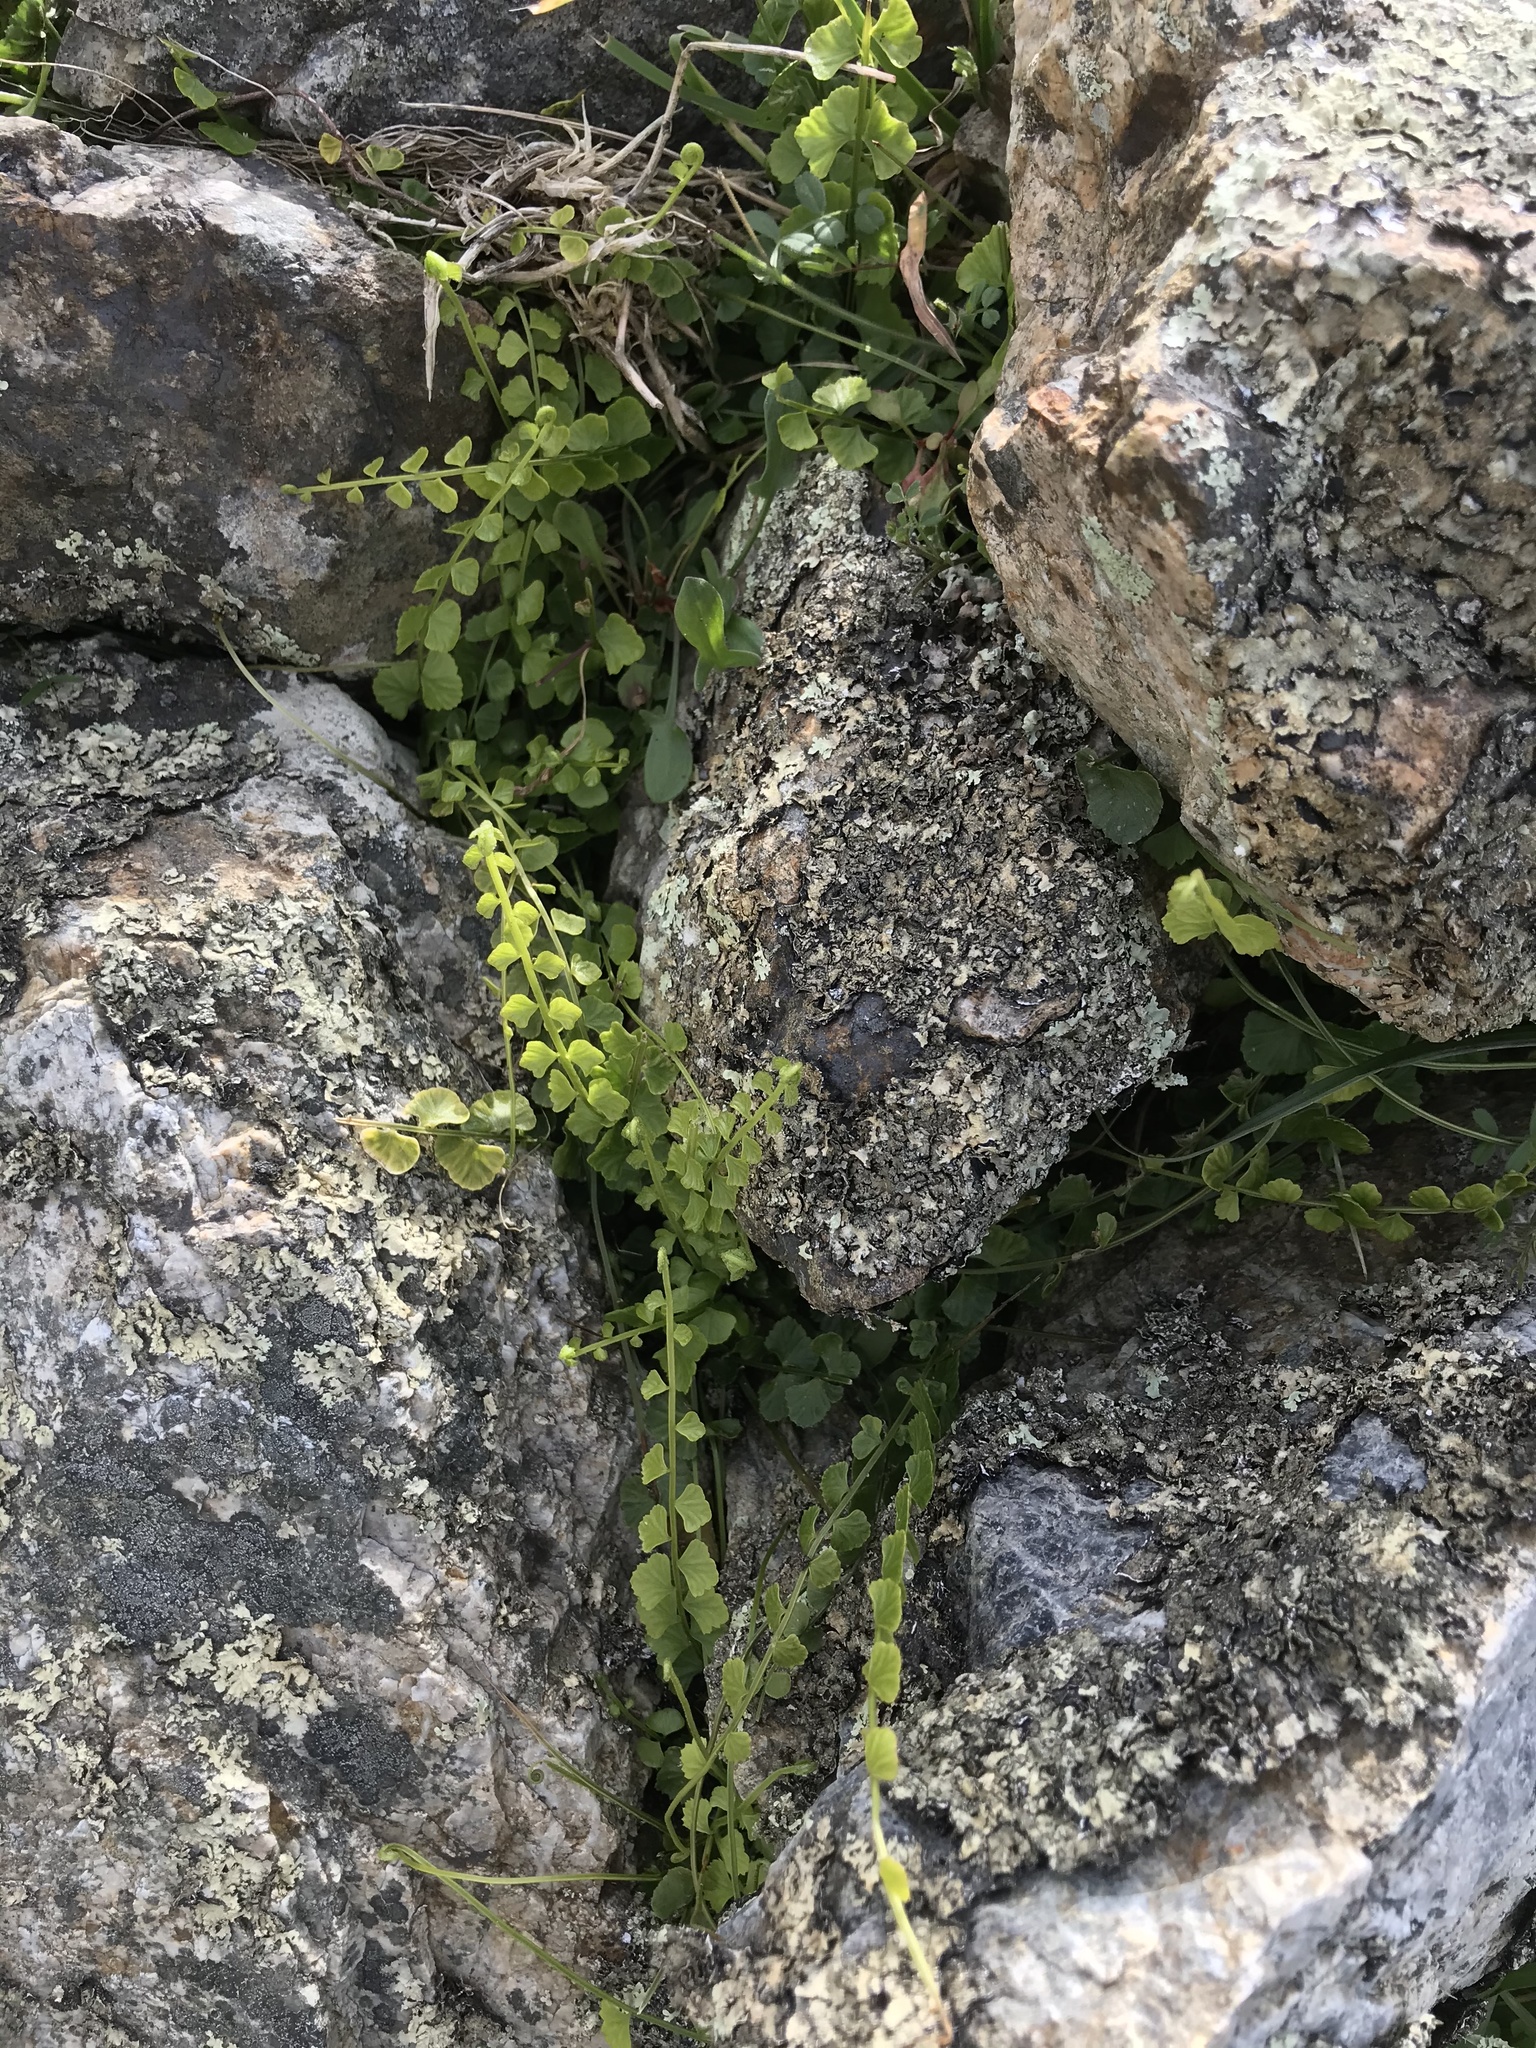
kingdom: Plantae
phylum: Tracheophyta
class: Polypodiopsida
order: Polypodiales
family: Aspleniaceae
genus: Asplenium
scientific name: Asplenium flabellifolium
